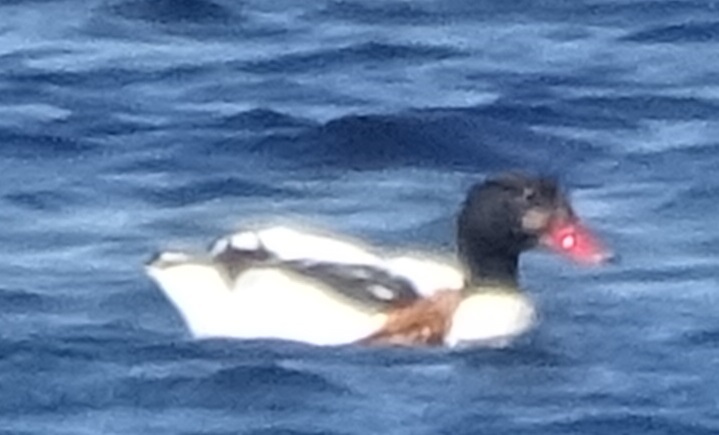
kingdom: Animalia
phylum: Chordata
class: Aves
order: Anseriformes
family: Anatidae
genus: Tadorna
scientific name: Tadorna tadorna
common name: Common shelduck
